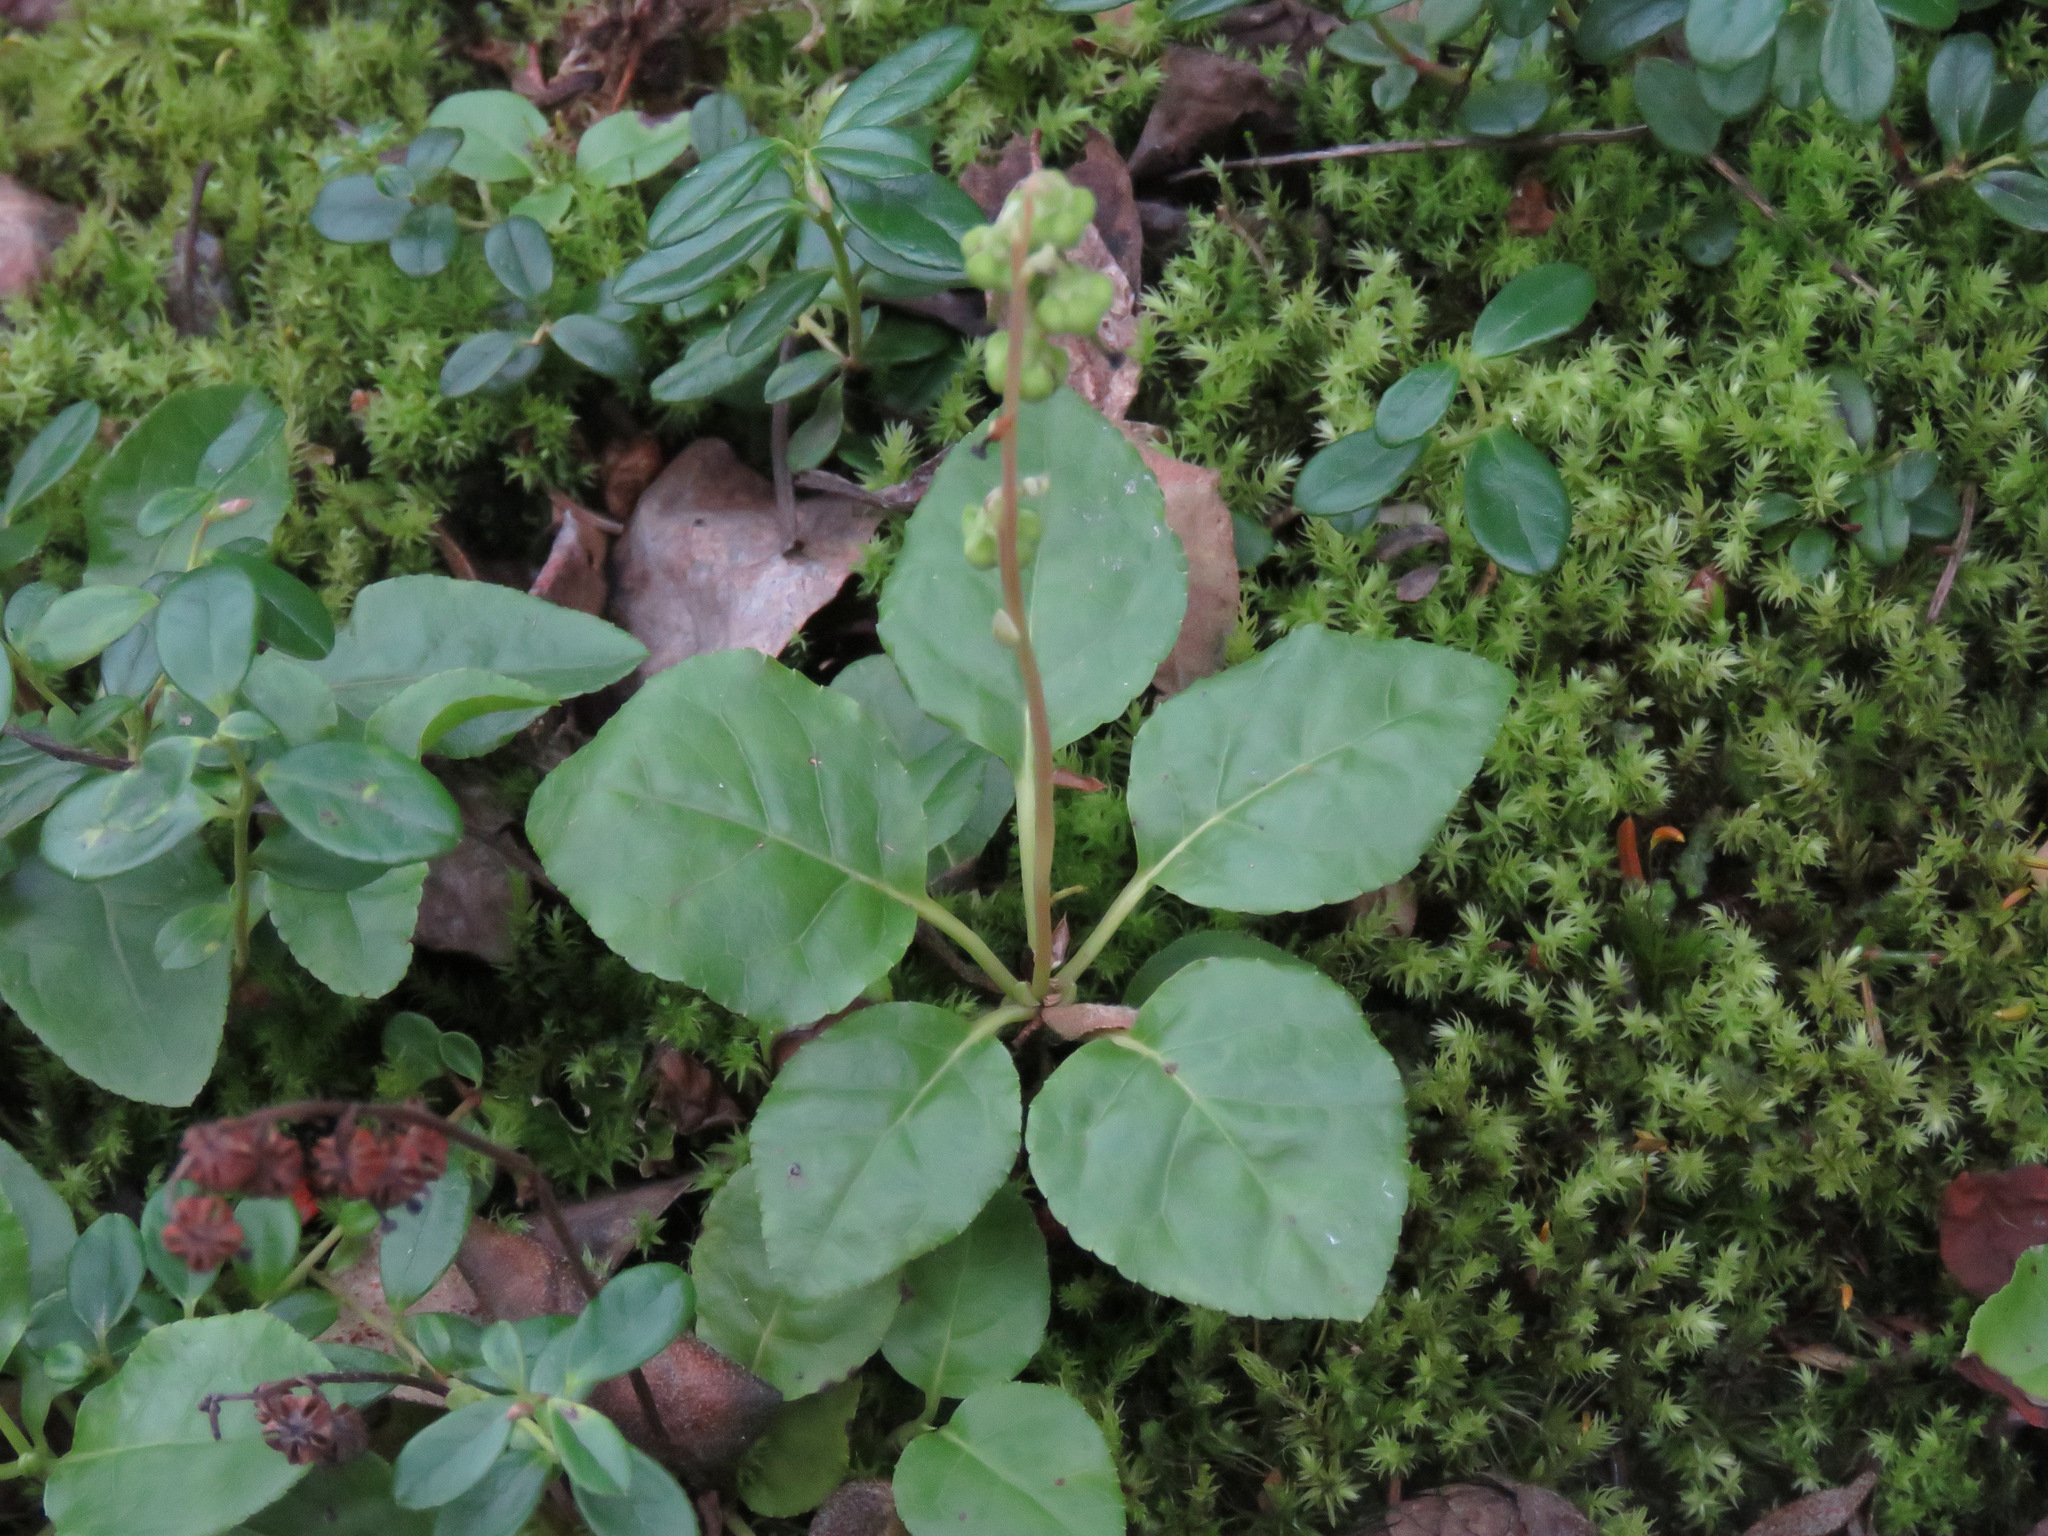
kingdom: Plantae
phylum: Tracheophyta
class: Magnoliopsida
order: Ericales
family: Ericaceae
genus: Orthilia
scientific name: Orthilia secunda
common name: One-sided orthilia
